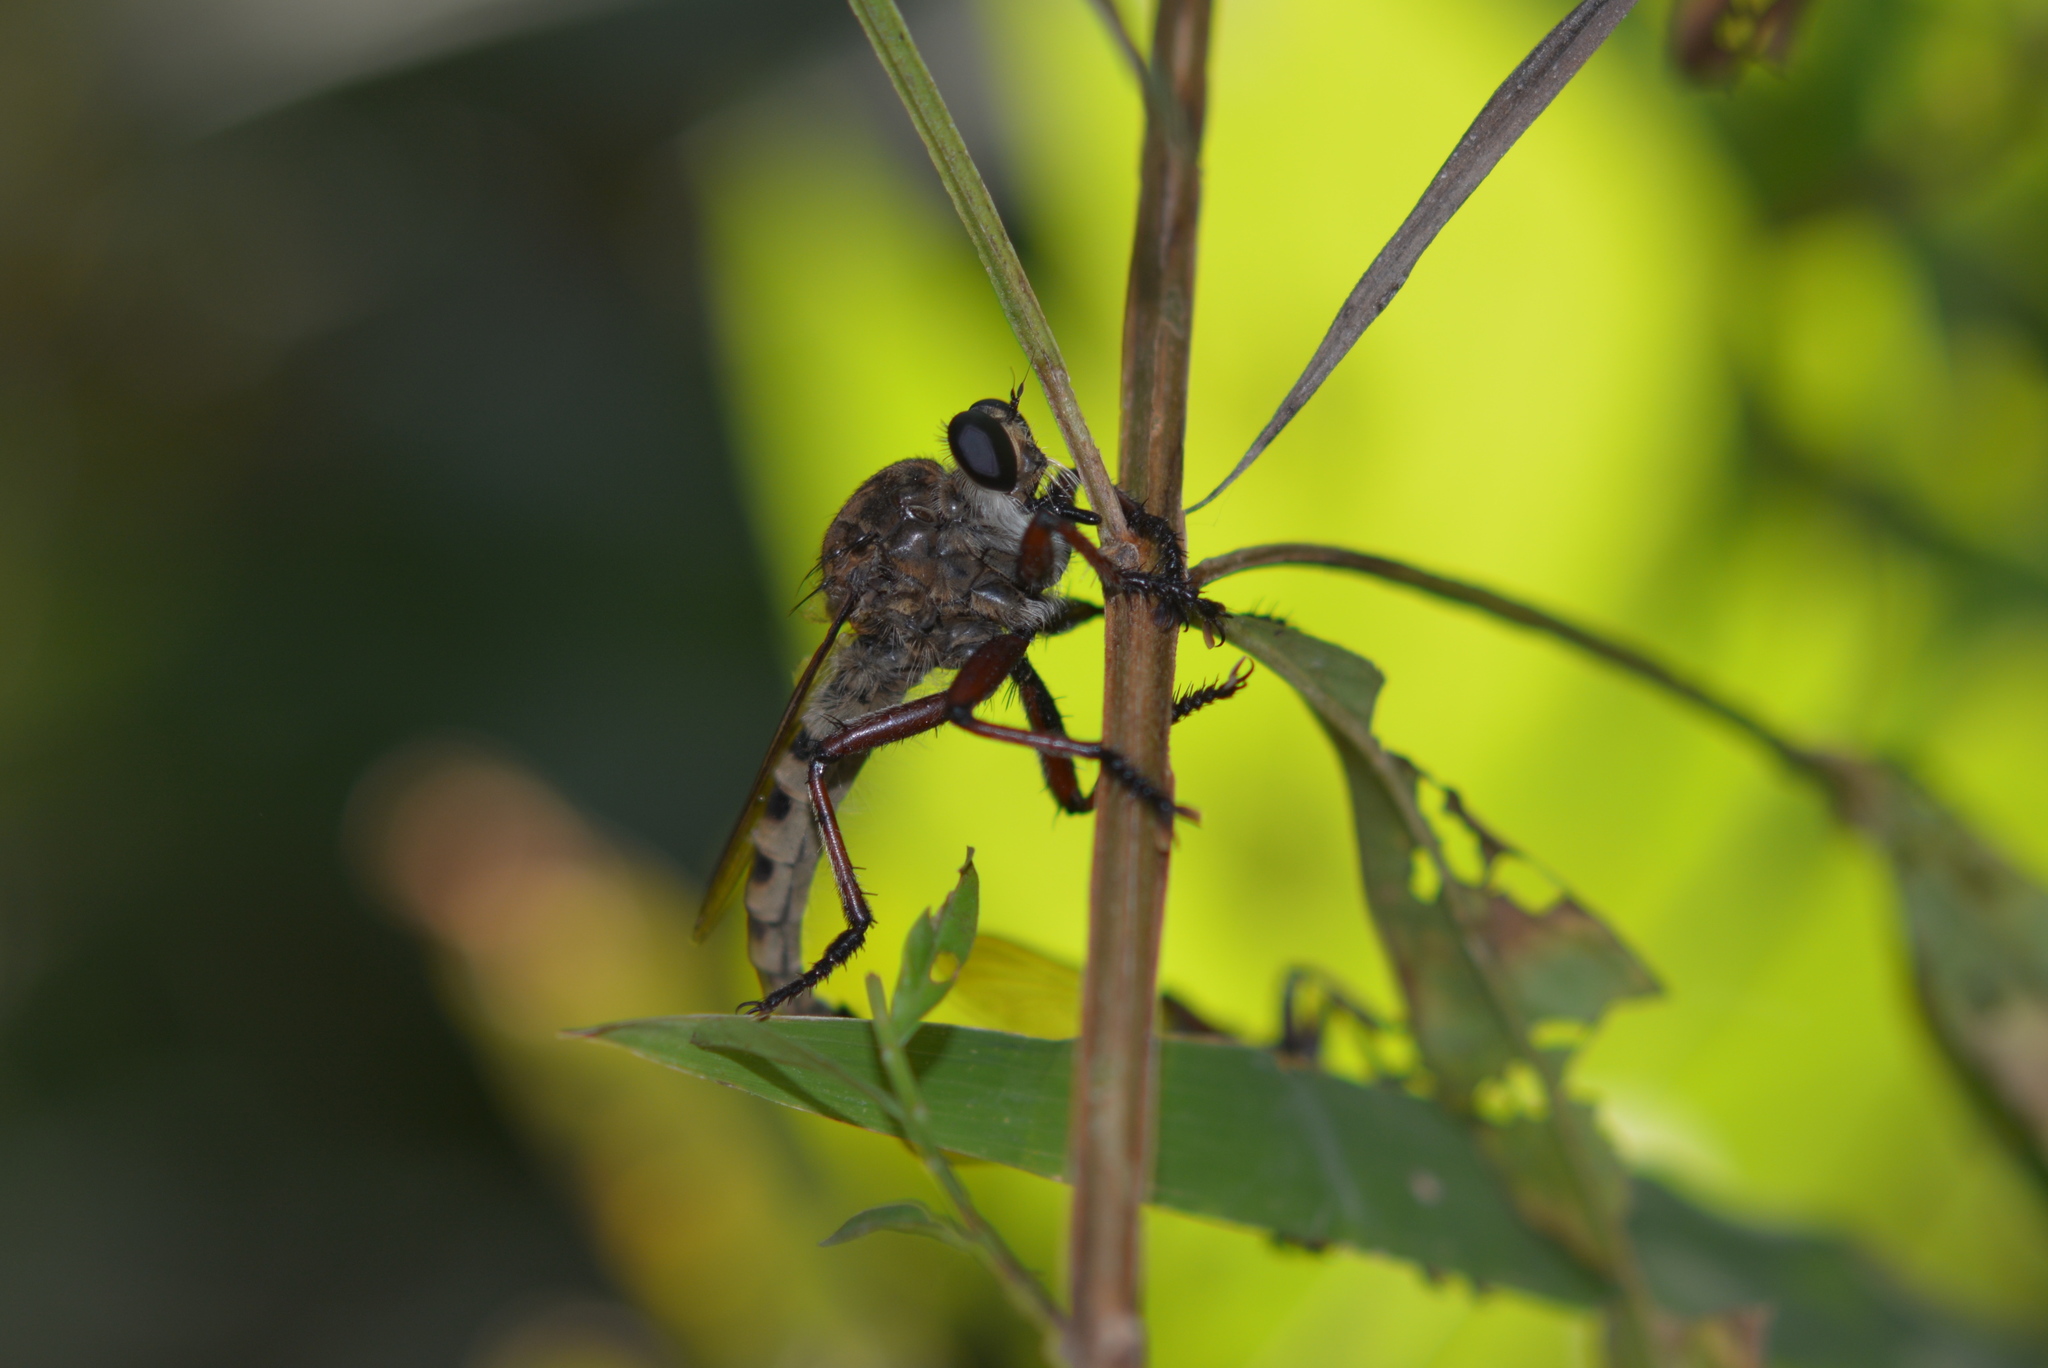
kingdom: Animalia
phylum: Arthropoda
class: Insecta
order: Diptera
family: Asilidae
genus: Promachus
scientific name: Promachus hinei
